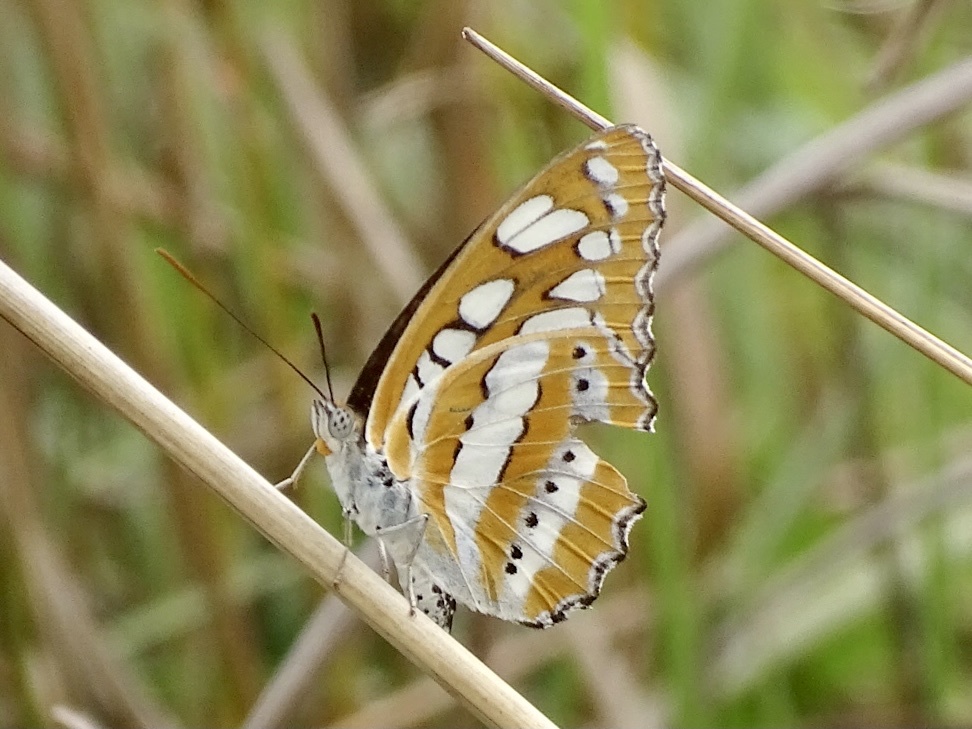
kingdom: Animalia
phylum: Arthropoda
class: Insecta
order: Lepidoptera
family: Nymphalidae
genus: Parathyma
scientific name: Parathyma perius
